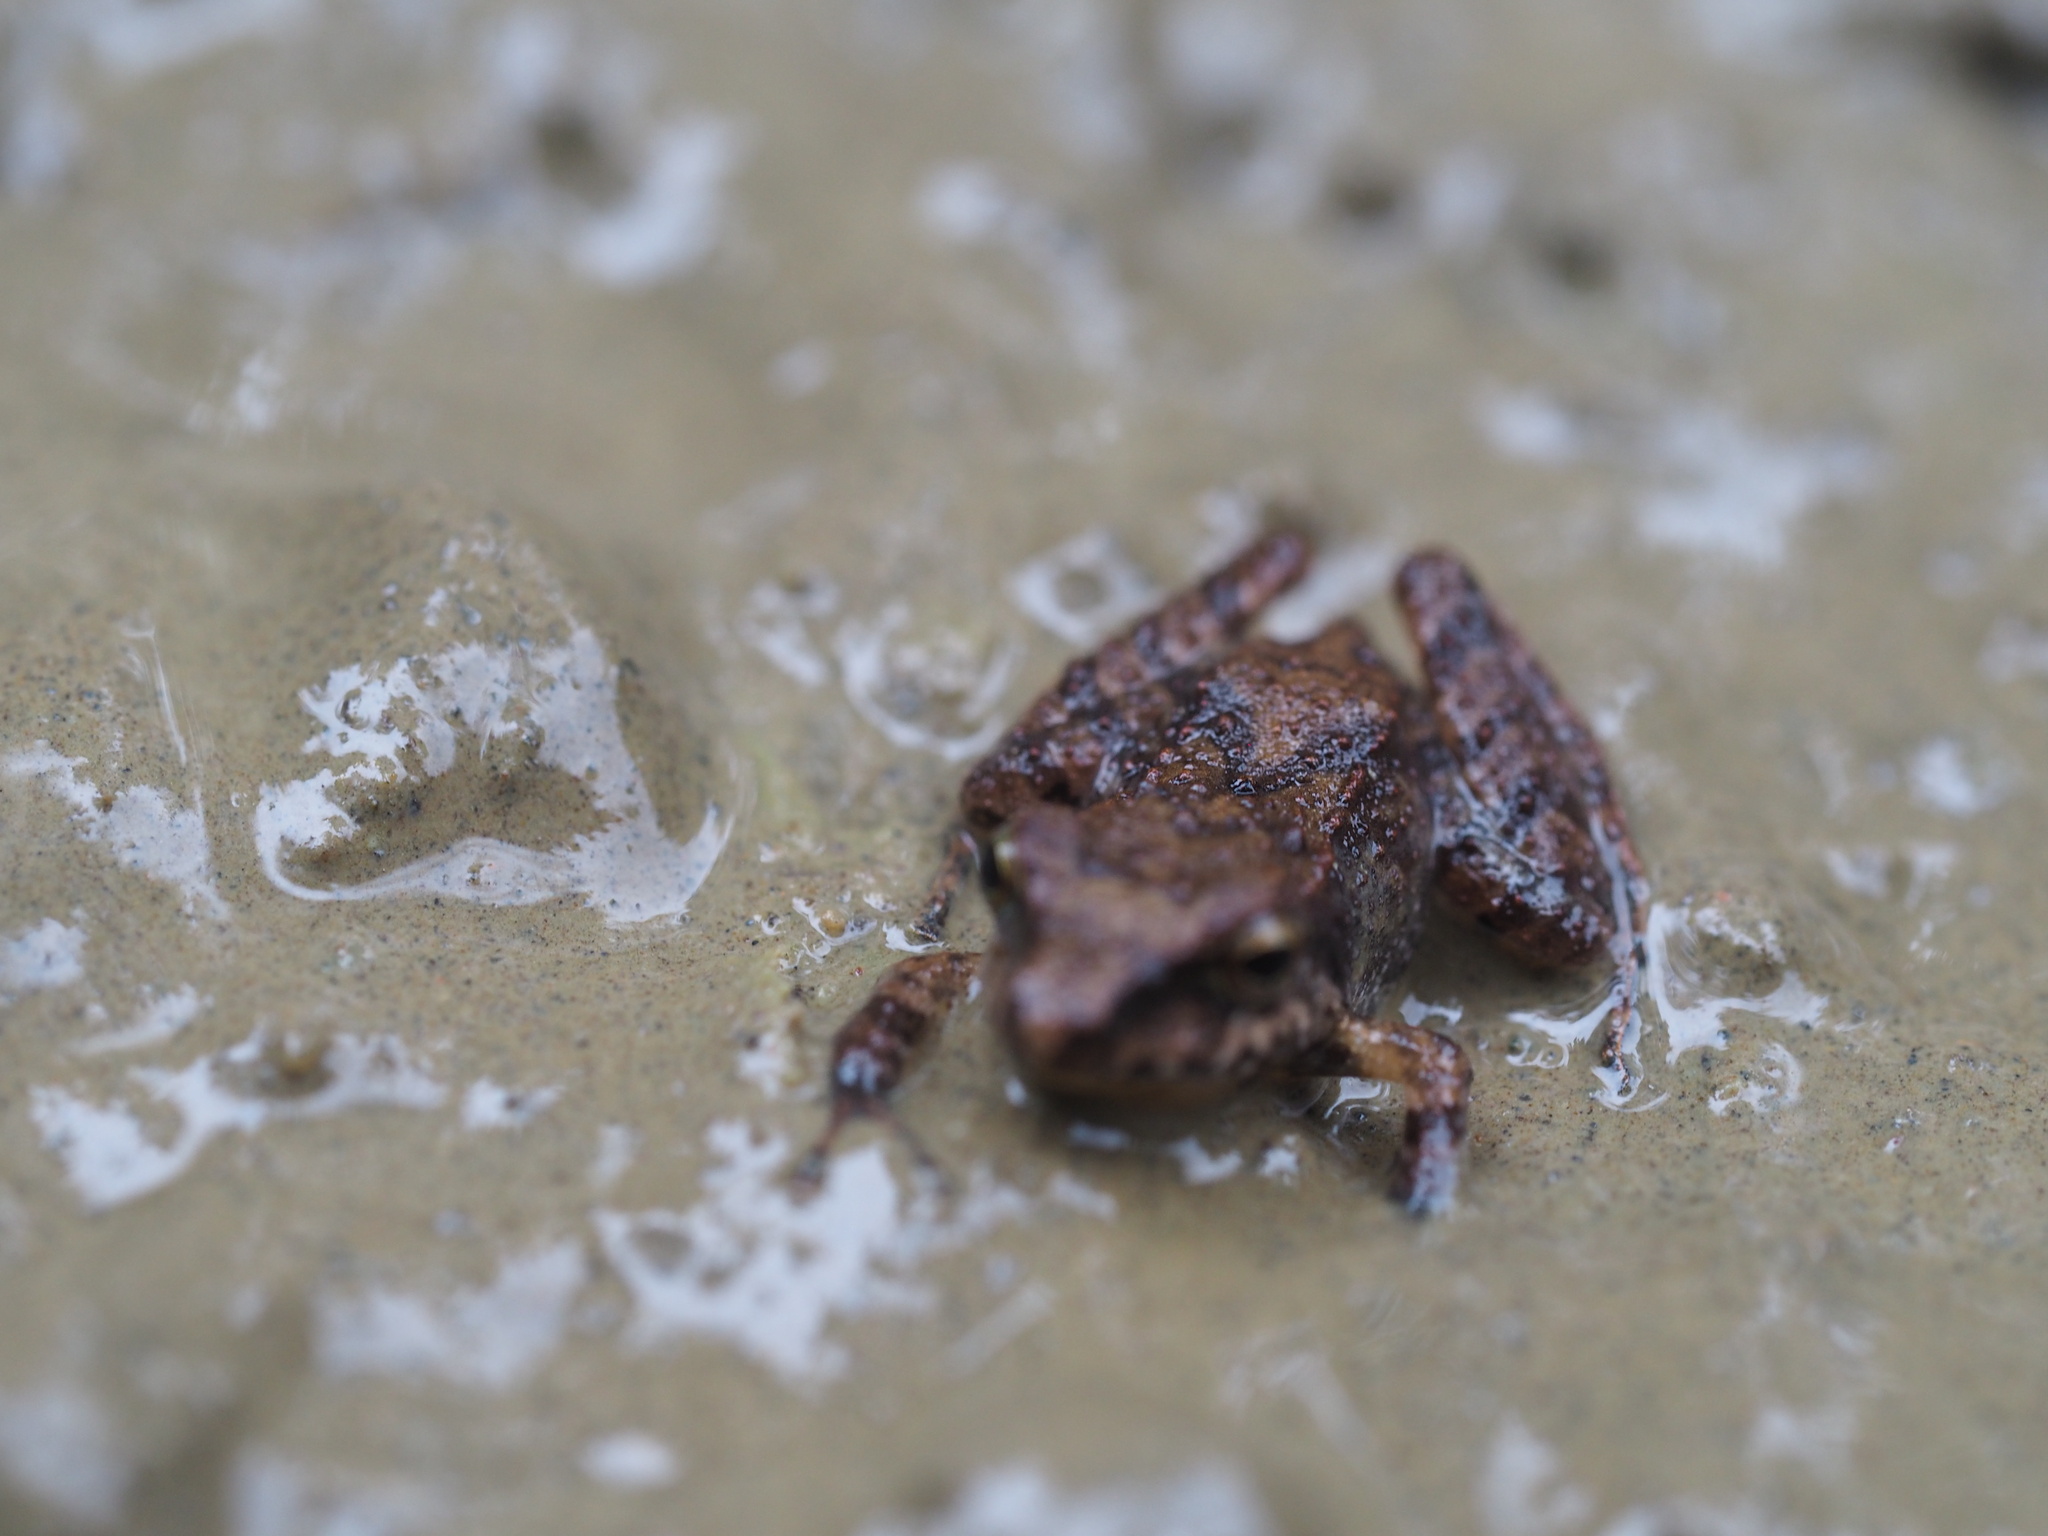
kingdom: Animalia
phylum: Chordata
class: Amphibia
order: Anura
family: Craugastoridae
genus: Pristimantis
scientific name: Pristimantis achatinus
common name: Cachabi robber frog
